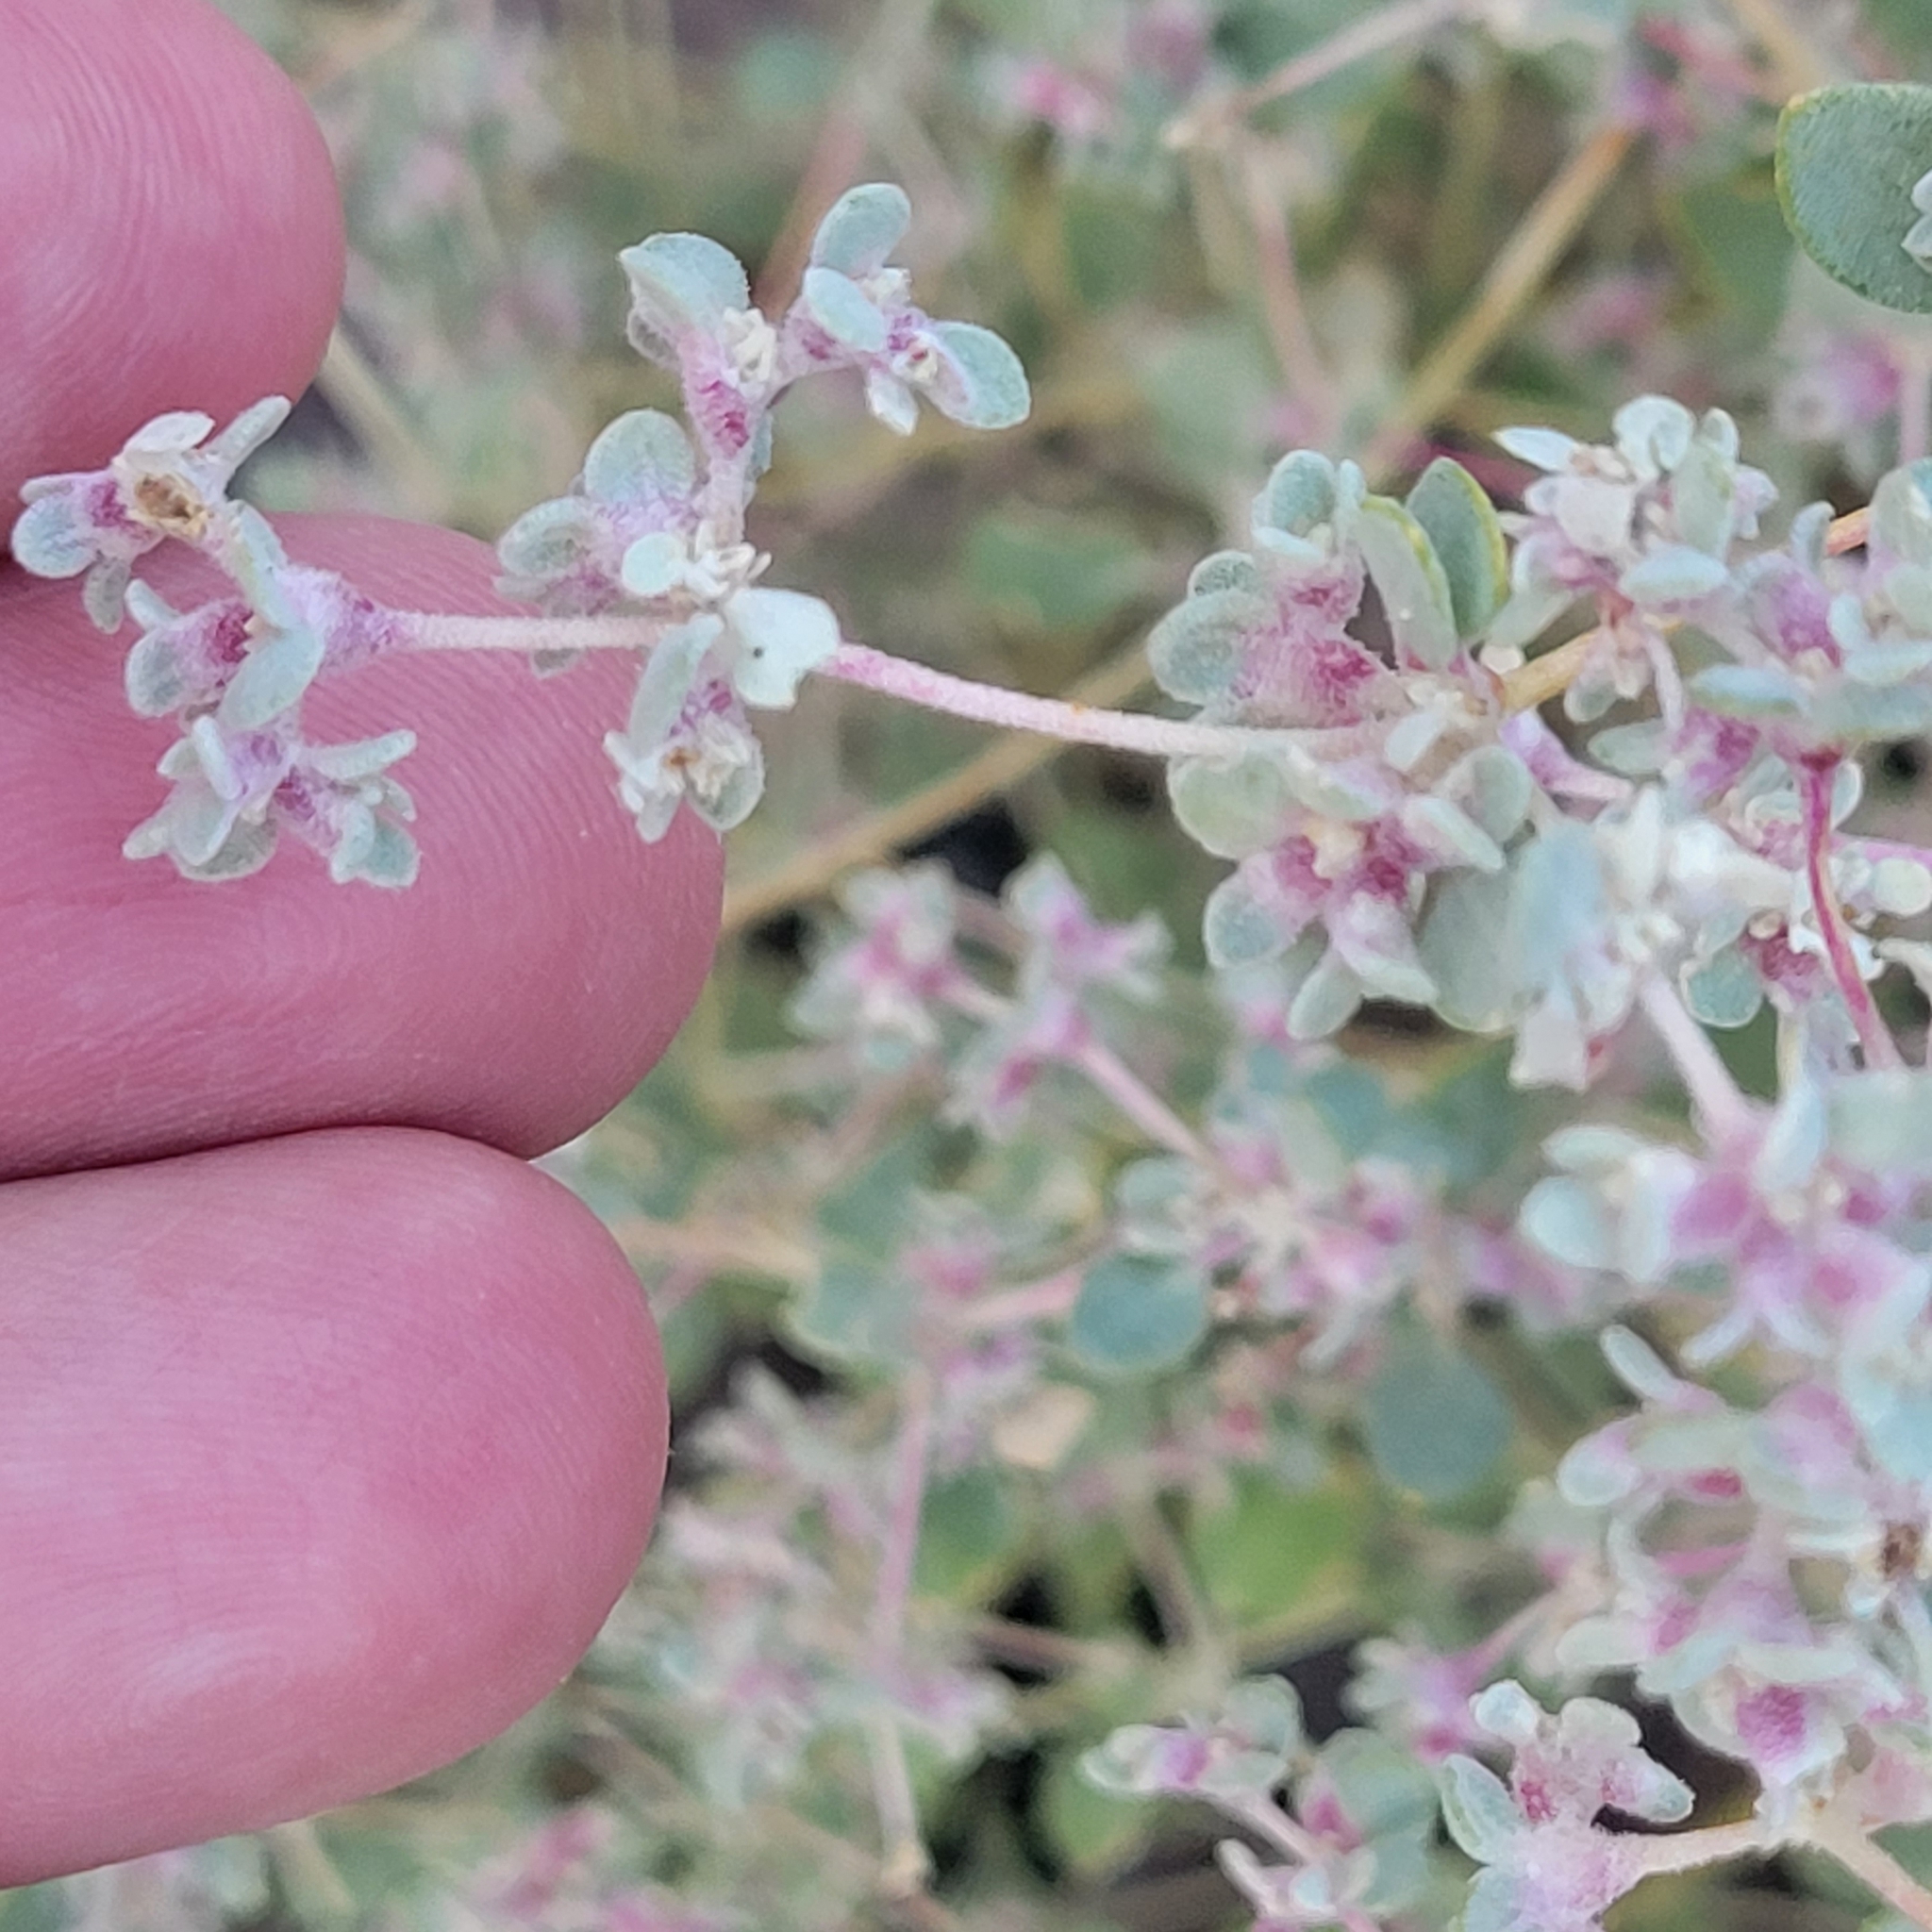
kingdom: Plantae
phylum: Tracheophyta
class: Magnoliopsida
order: Caryophyllales
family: Amaranthaceae
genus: Tidestromia
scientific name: Tidestromia suffruticosa
